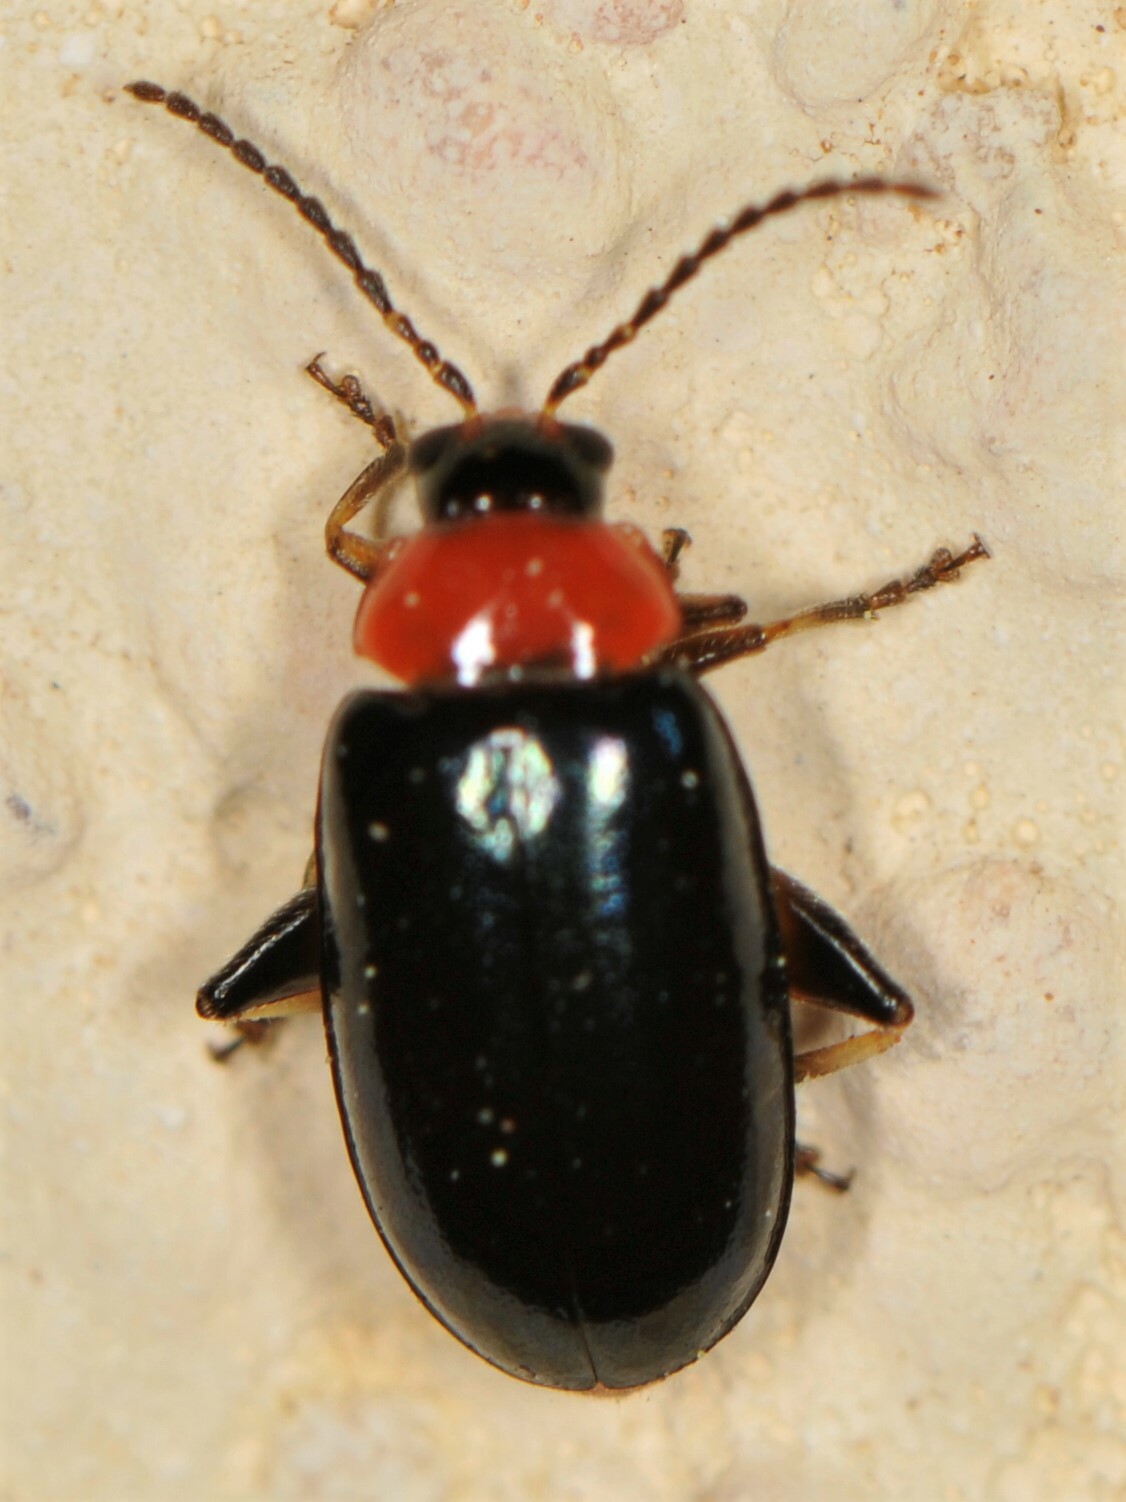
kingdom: Animalia
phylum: Arthropoda
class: Insecta
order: Coleoptera
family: Chrysomelidae
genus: Disonycha
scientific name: Disonycha politula
